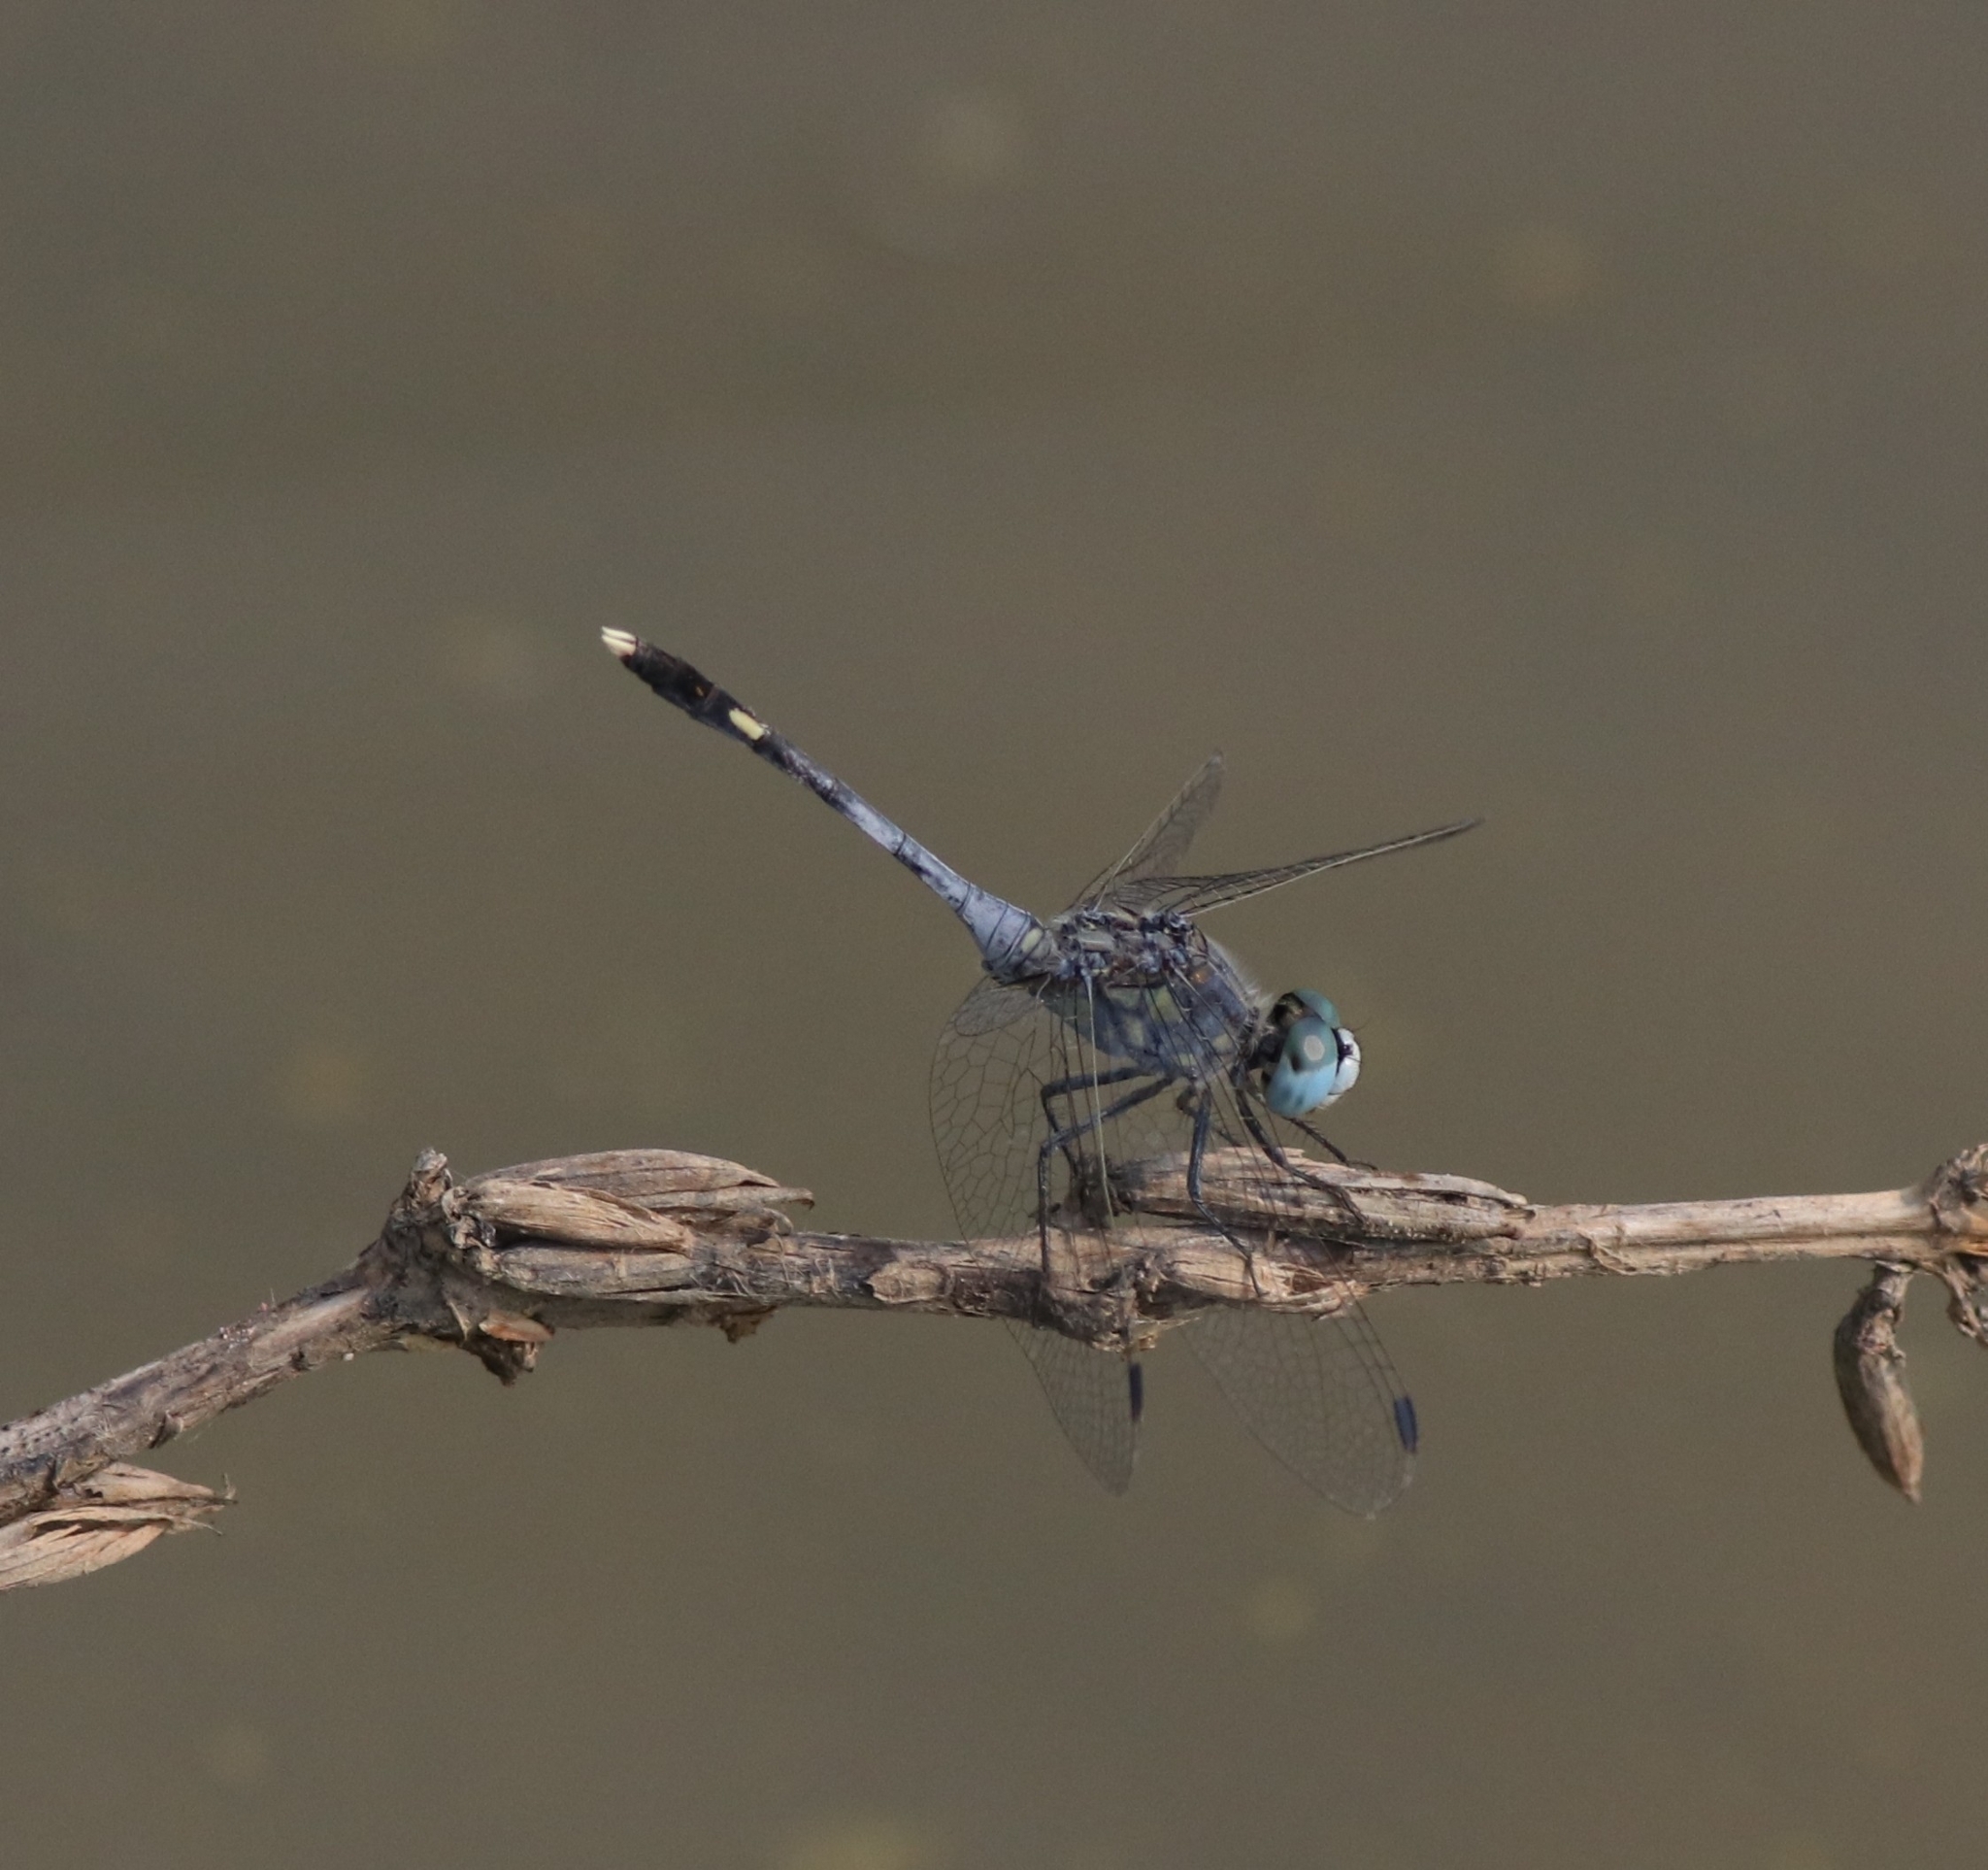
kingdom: Animalia
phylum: Arthropoda
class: Insecta
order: Odonata
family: Libellulidae
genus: Diplacodes
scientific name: Diplacodes trivialis
